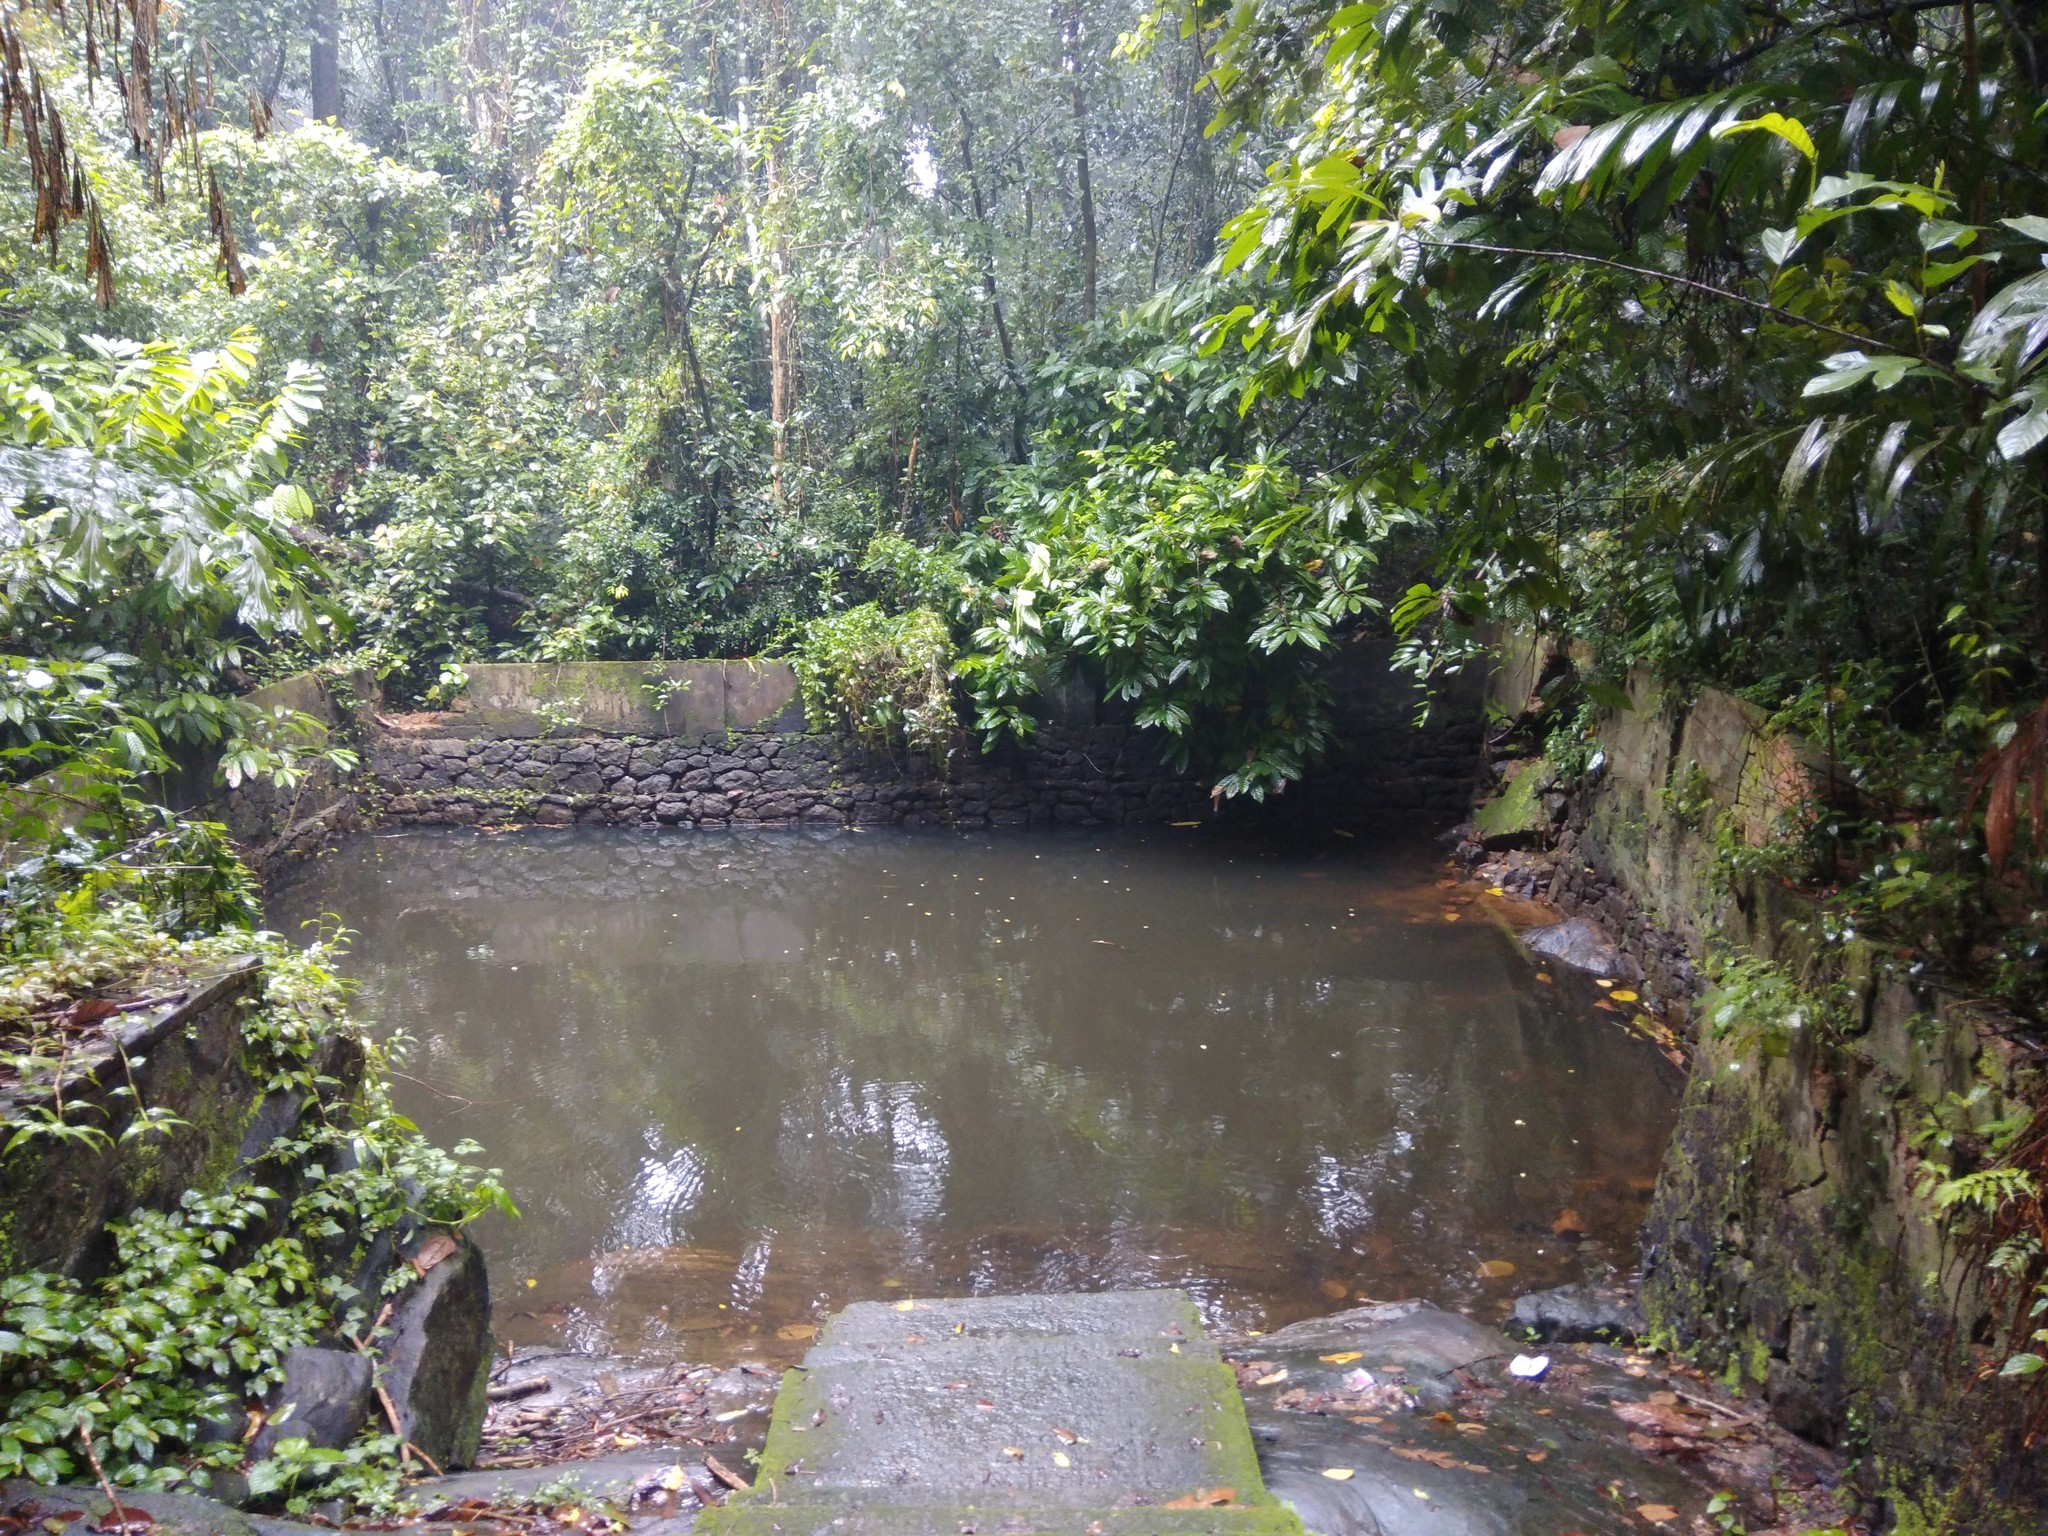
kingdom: Animalia
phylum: Chordata
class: Testudines
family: Geoemydidae
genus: Melanochelys
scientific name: Melanochelys trijuga
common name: Indian black turtle
